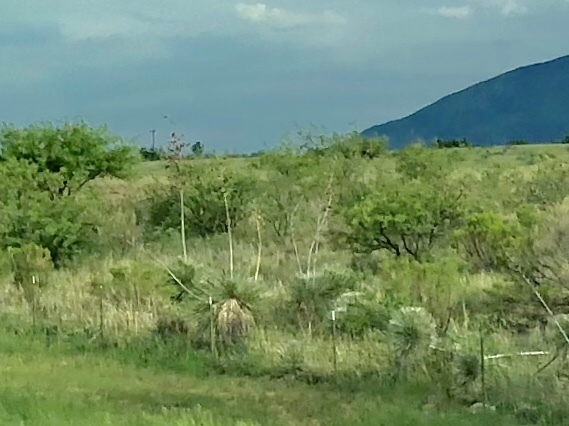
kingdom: Plantae
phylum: Tracheophyta
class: Liliopsida
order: Asparagales
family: Asparagaceae
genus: Yucca
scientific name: Yucca elata
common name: Palmella
